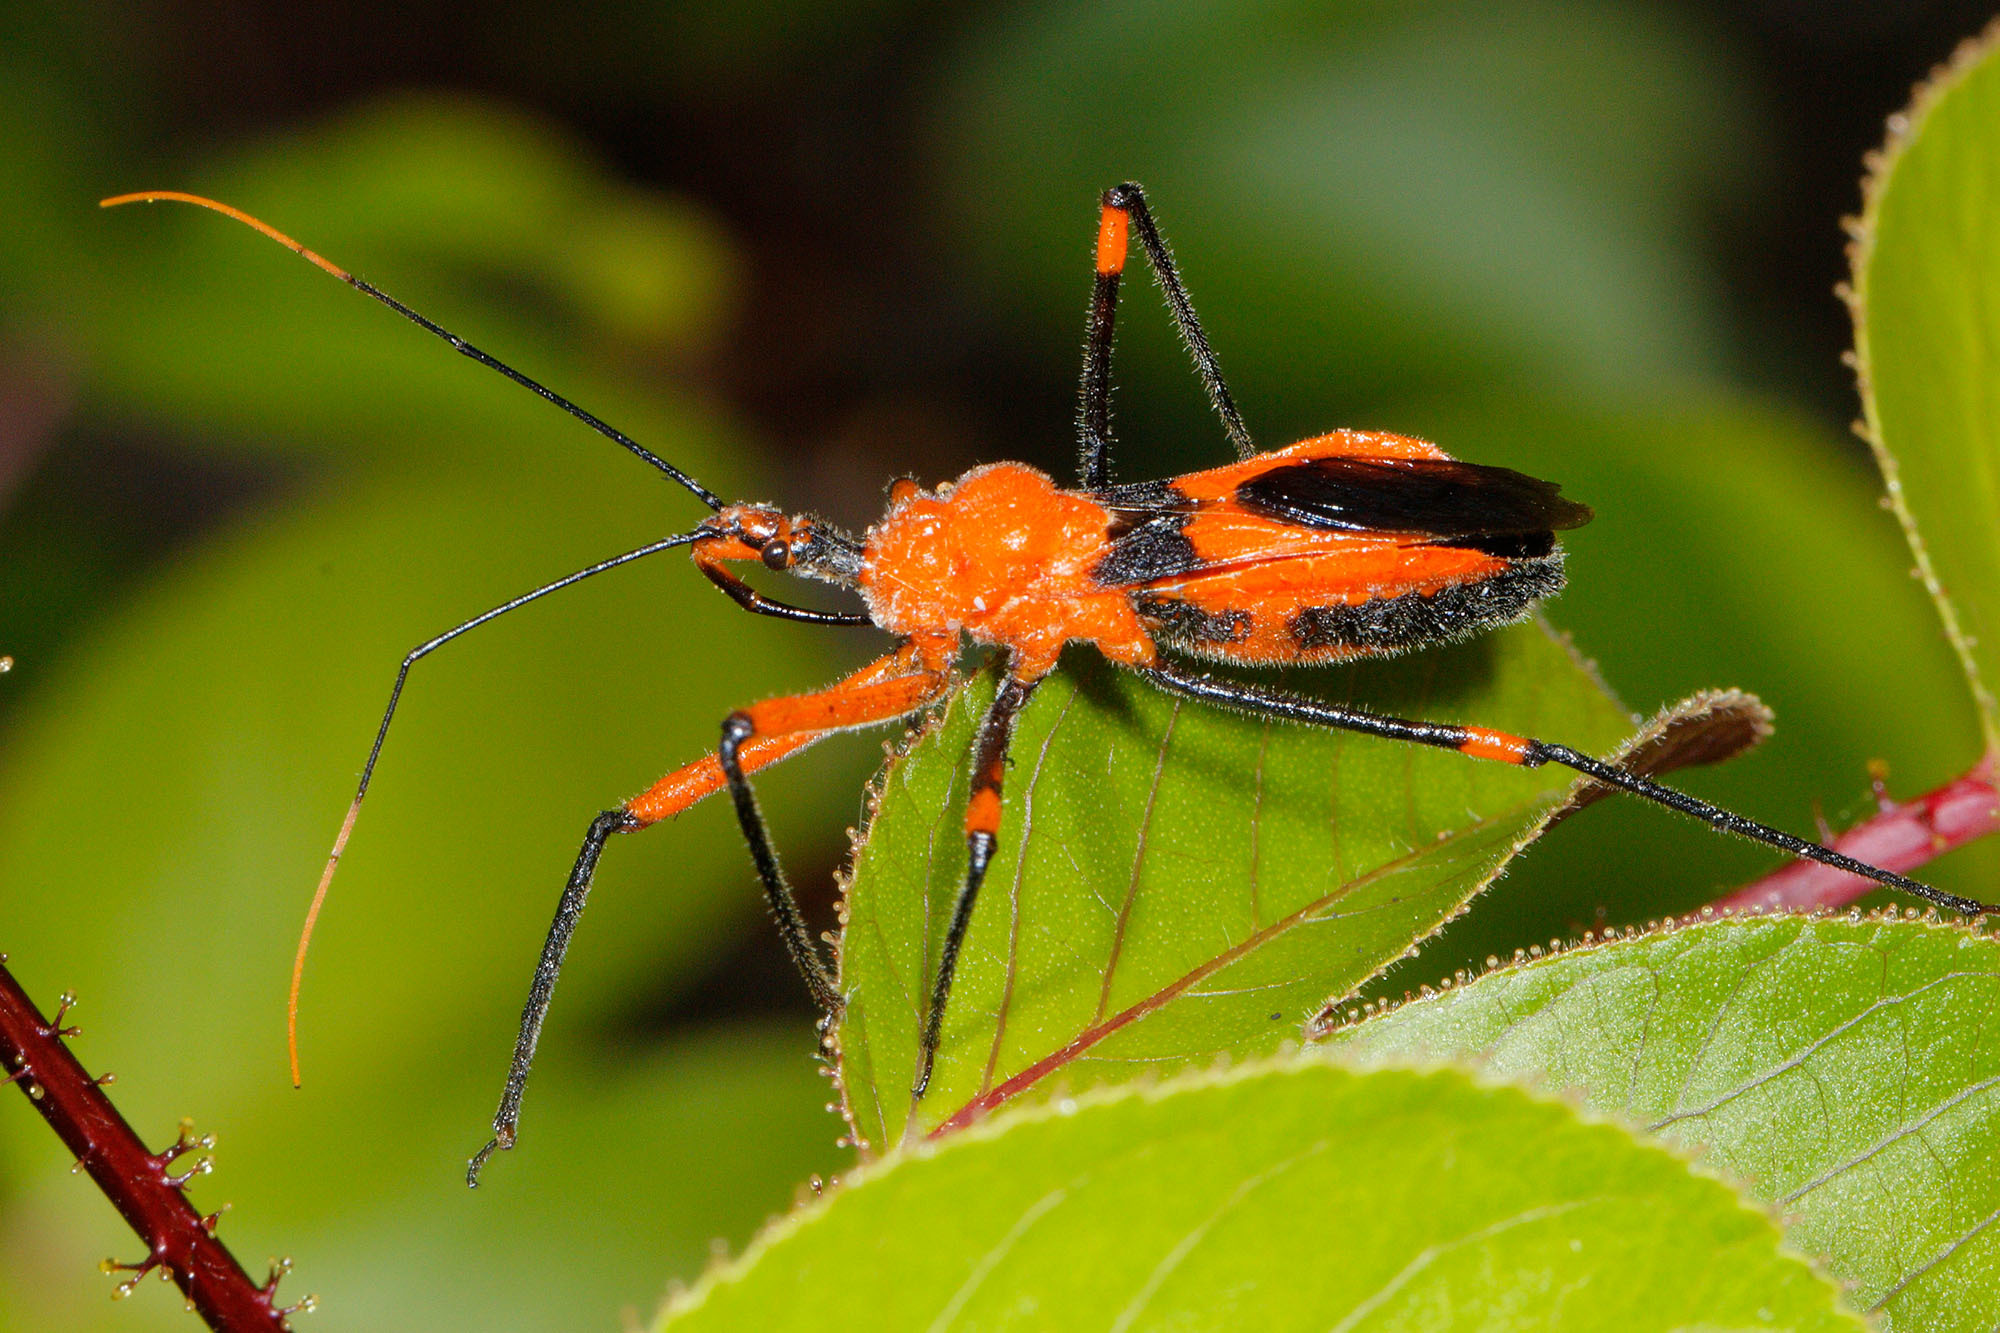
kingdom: Animalia
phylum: Arthropoda
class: Insecta
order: Hemiptera
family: Reduviidae
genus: Poecilobdallus
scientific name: Poecilobdallus formosus
